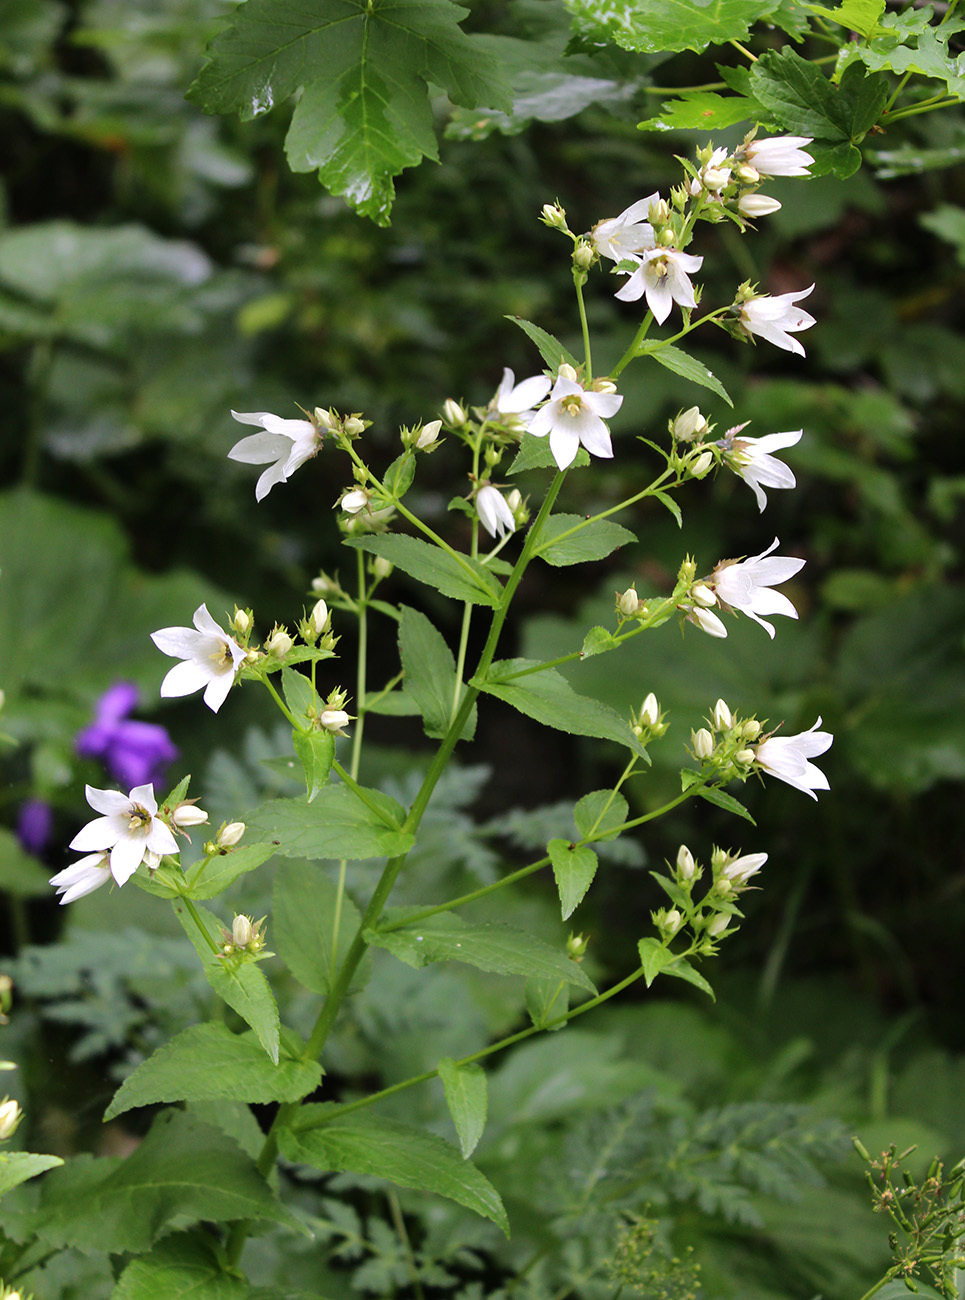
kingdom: Plantae
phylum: Tracheophyta
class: Magnoliopsida
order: Asterales
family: Campanulaceae
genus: Campanula
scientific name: Campanula lactiflora
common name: Milky bellflower
